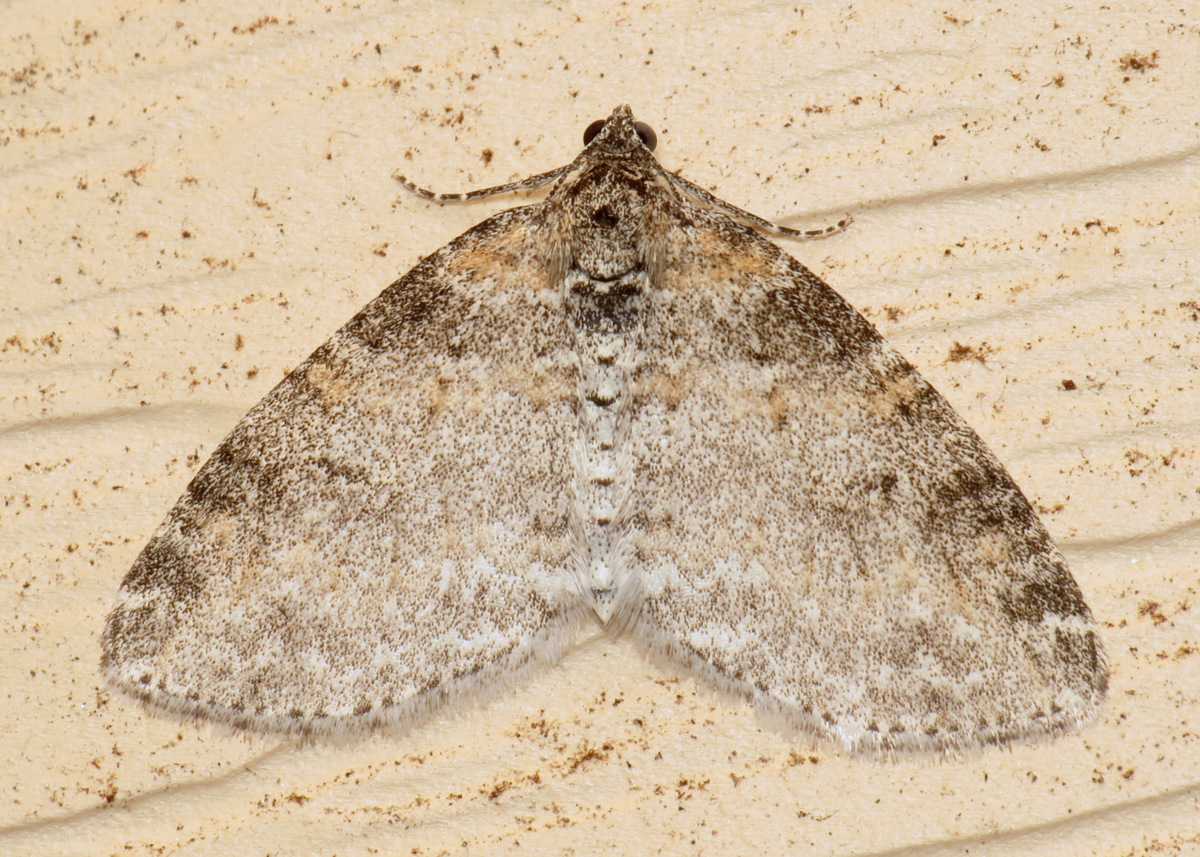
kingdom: Animalia
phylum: Arthropoda
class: Insecta
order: Lepidoptera
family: Geometridae
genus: Lobophora
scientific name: Lobophora nivigerata
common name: Powdered bigwing
